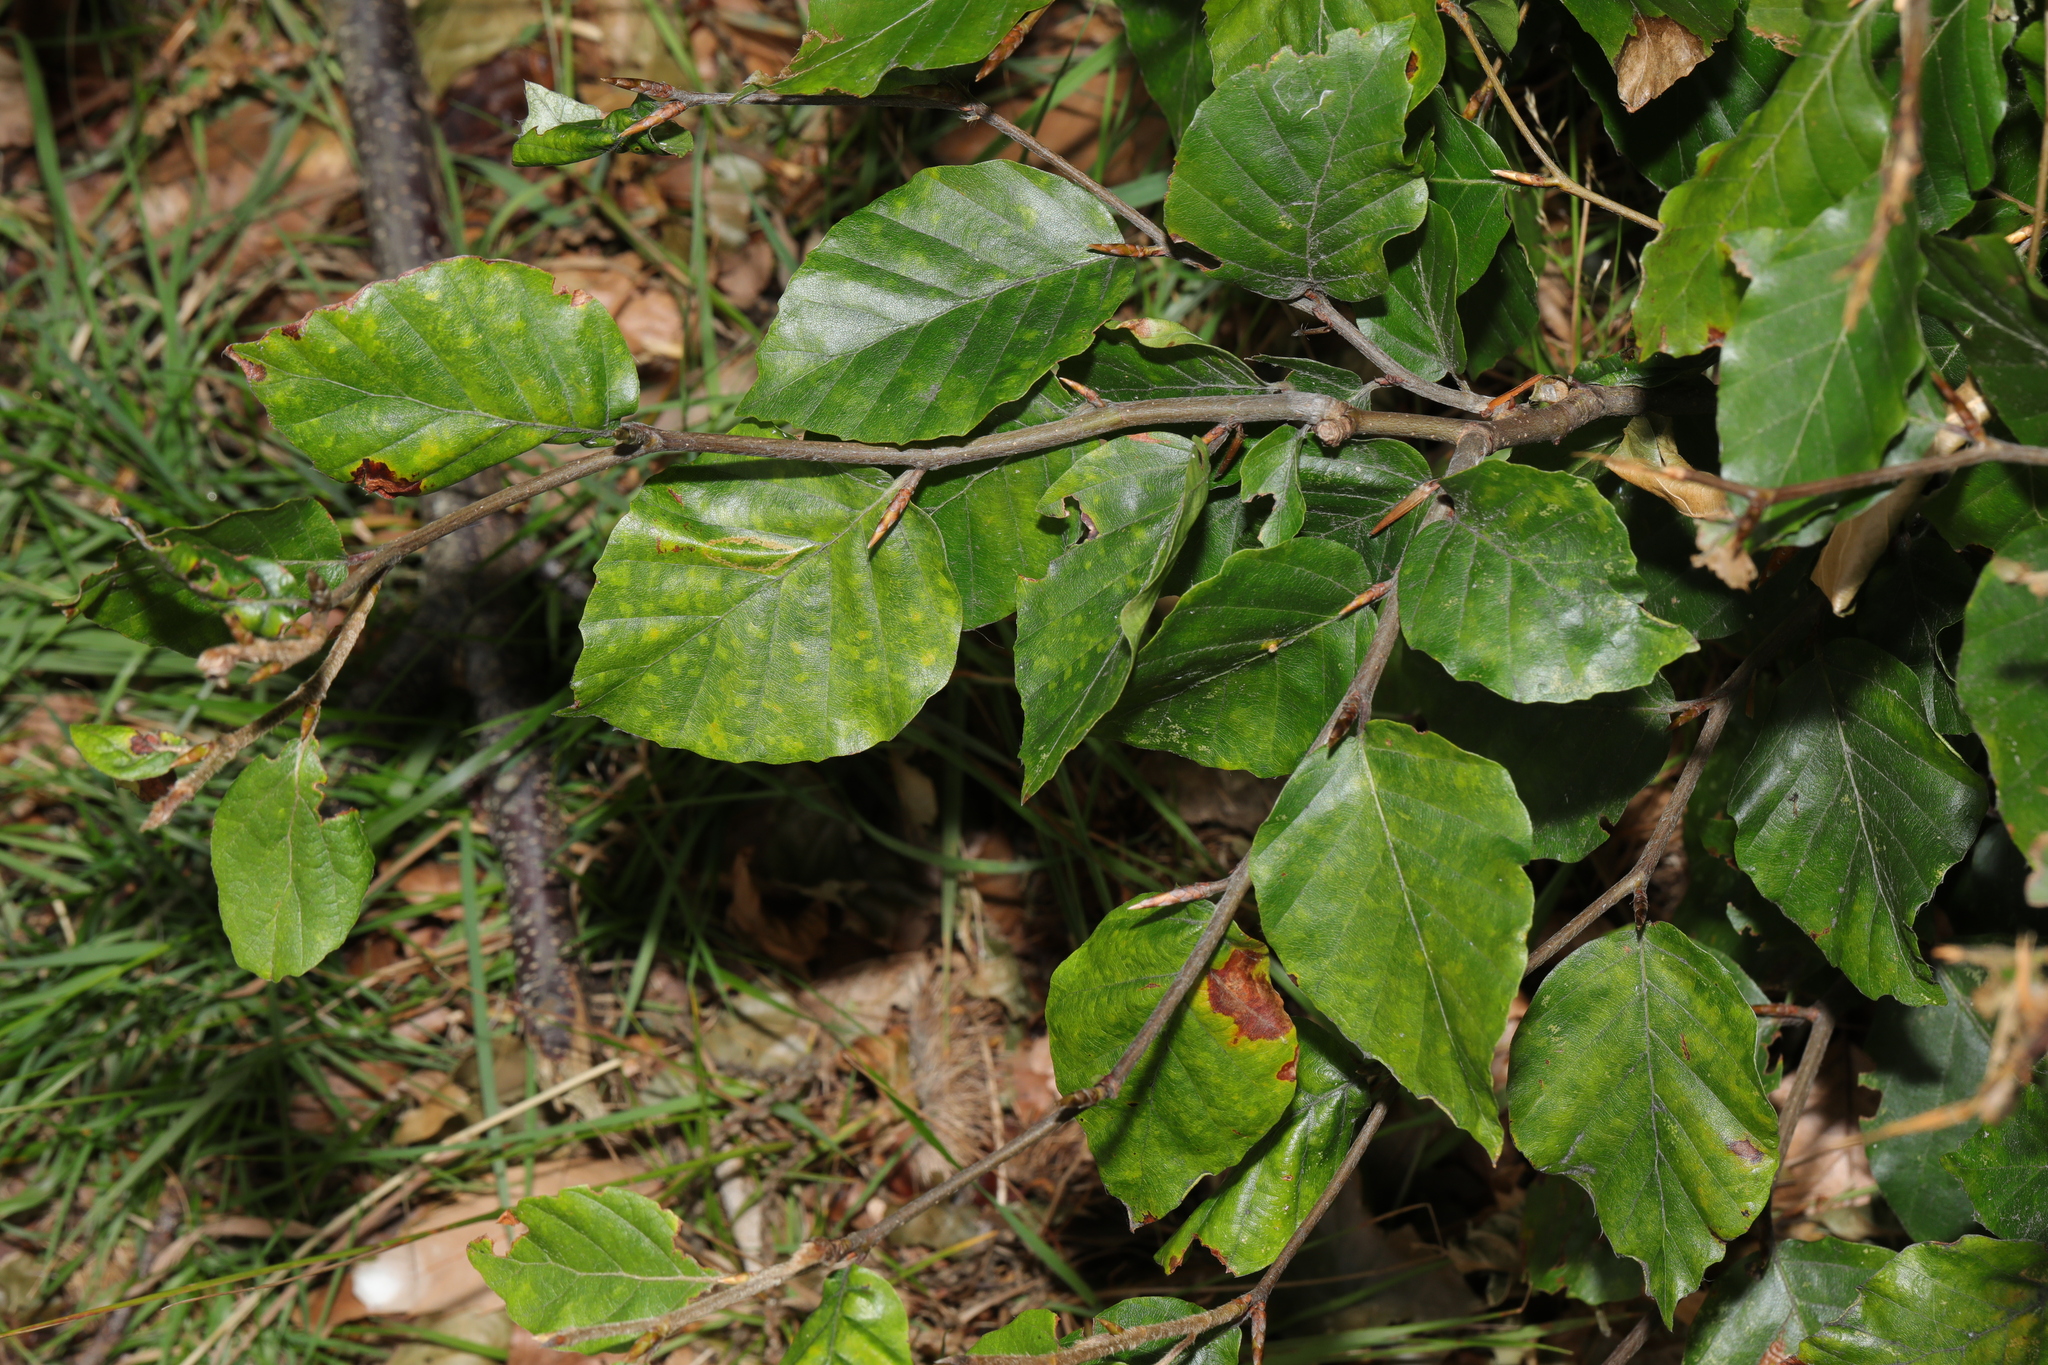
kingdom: Plantae
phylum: Tracheophyta
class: Magnoliopsida
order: Fagales
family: Fagaceae
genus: Fagus
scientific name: Fagus sylvatica
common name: Beech
